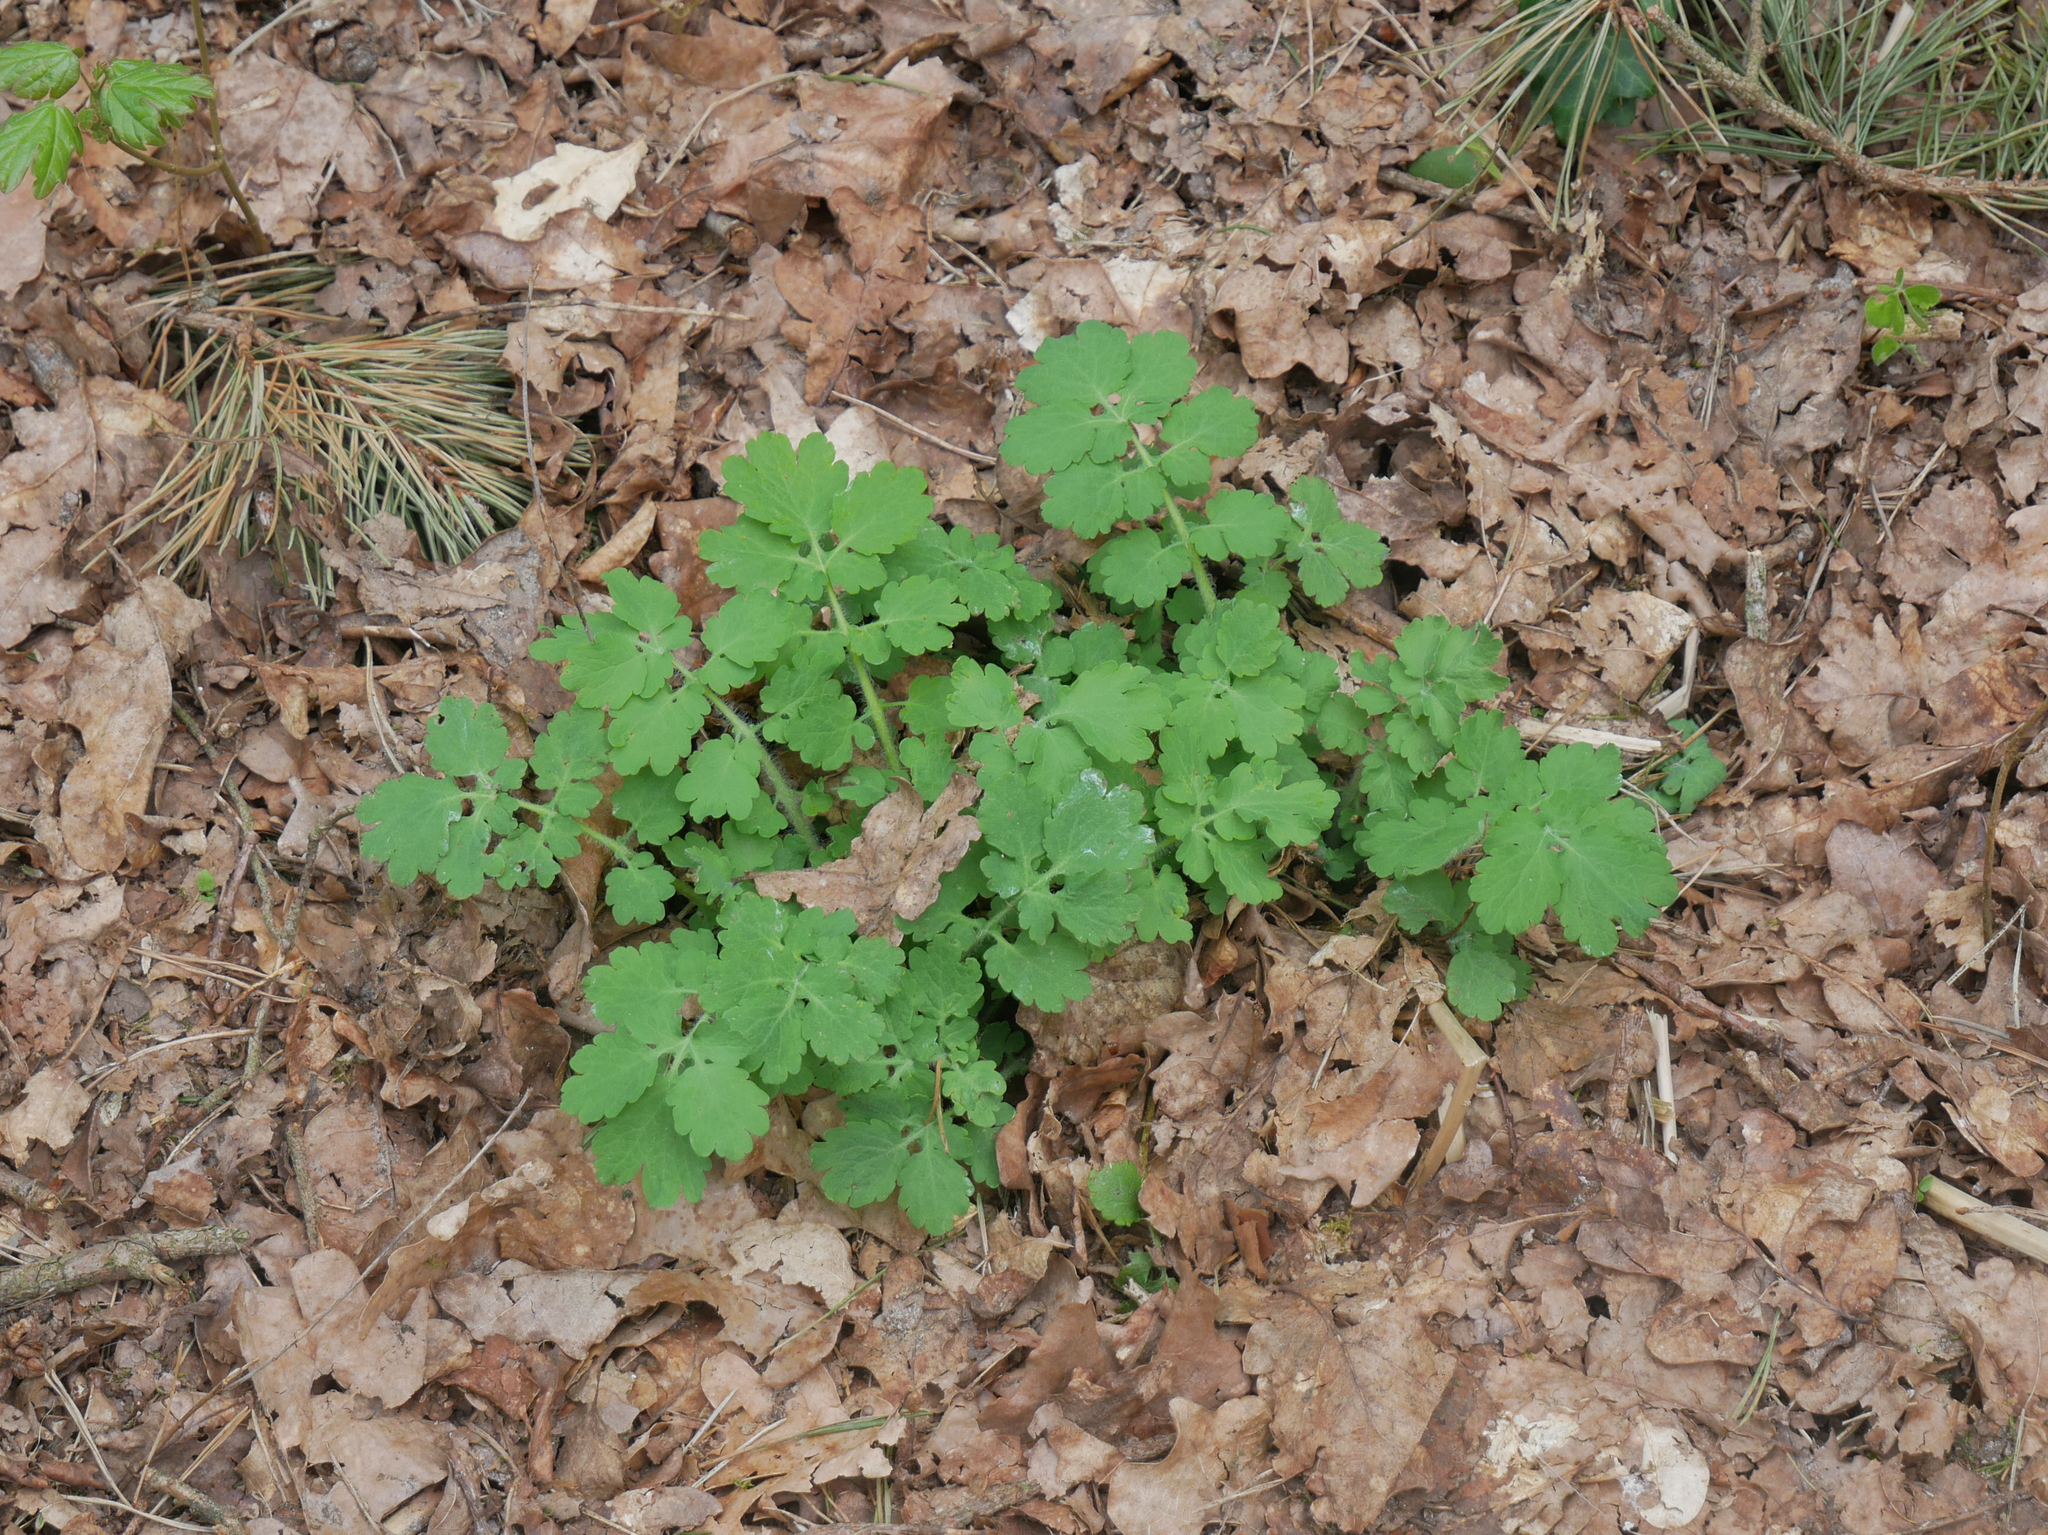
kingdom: Plantae
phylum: Tracheophyta
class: Magnoliopsida
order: Ranunculales
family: Papaveraceae
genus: Chelidonium
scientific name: Chelidonium majus
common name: Greater celandine
